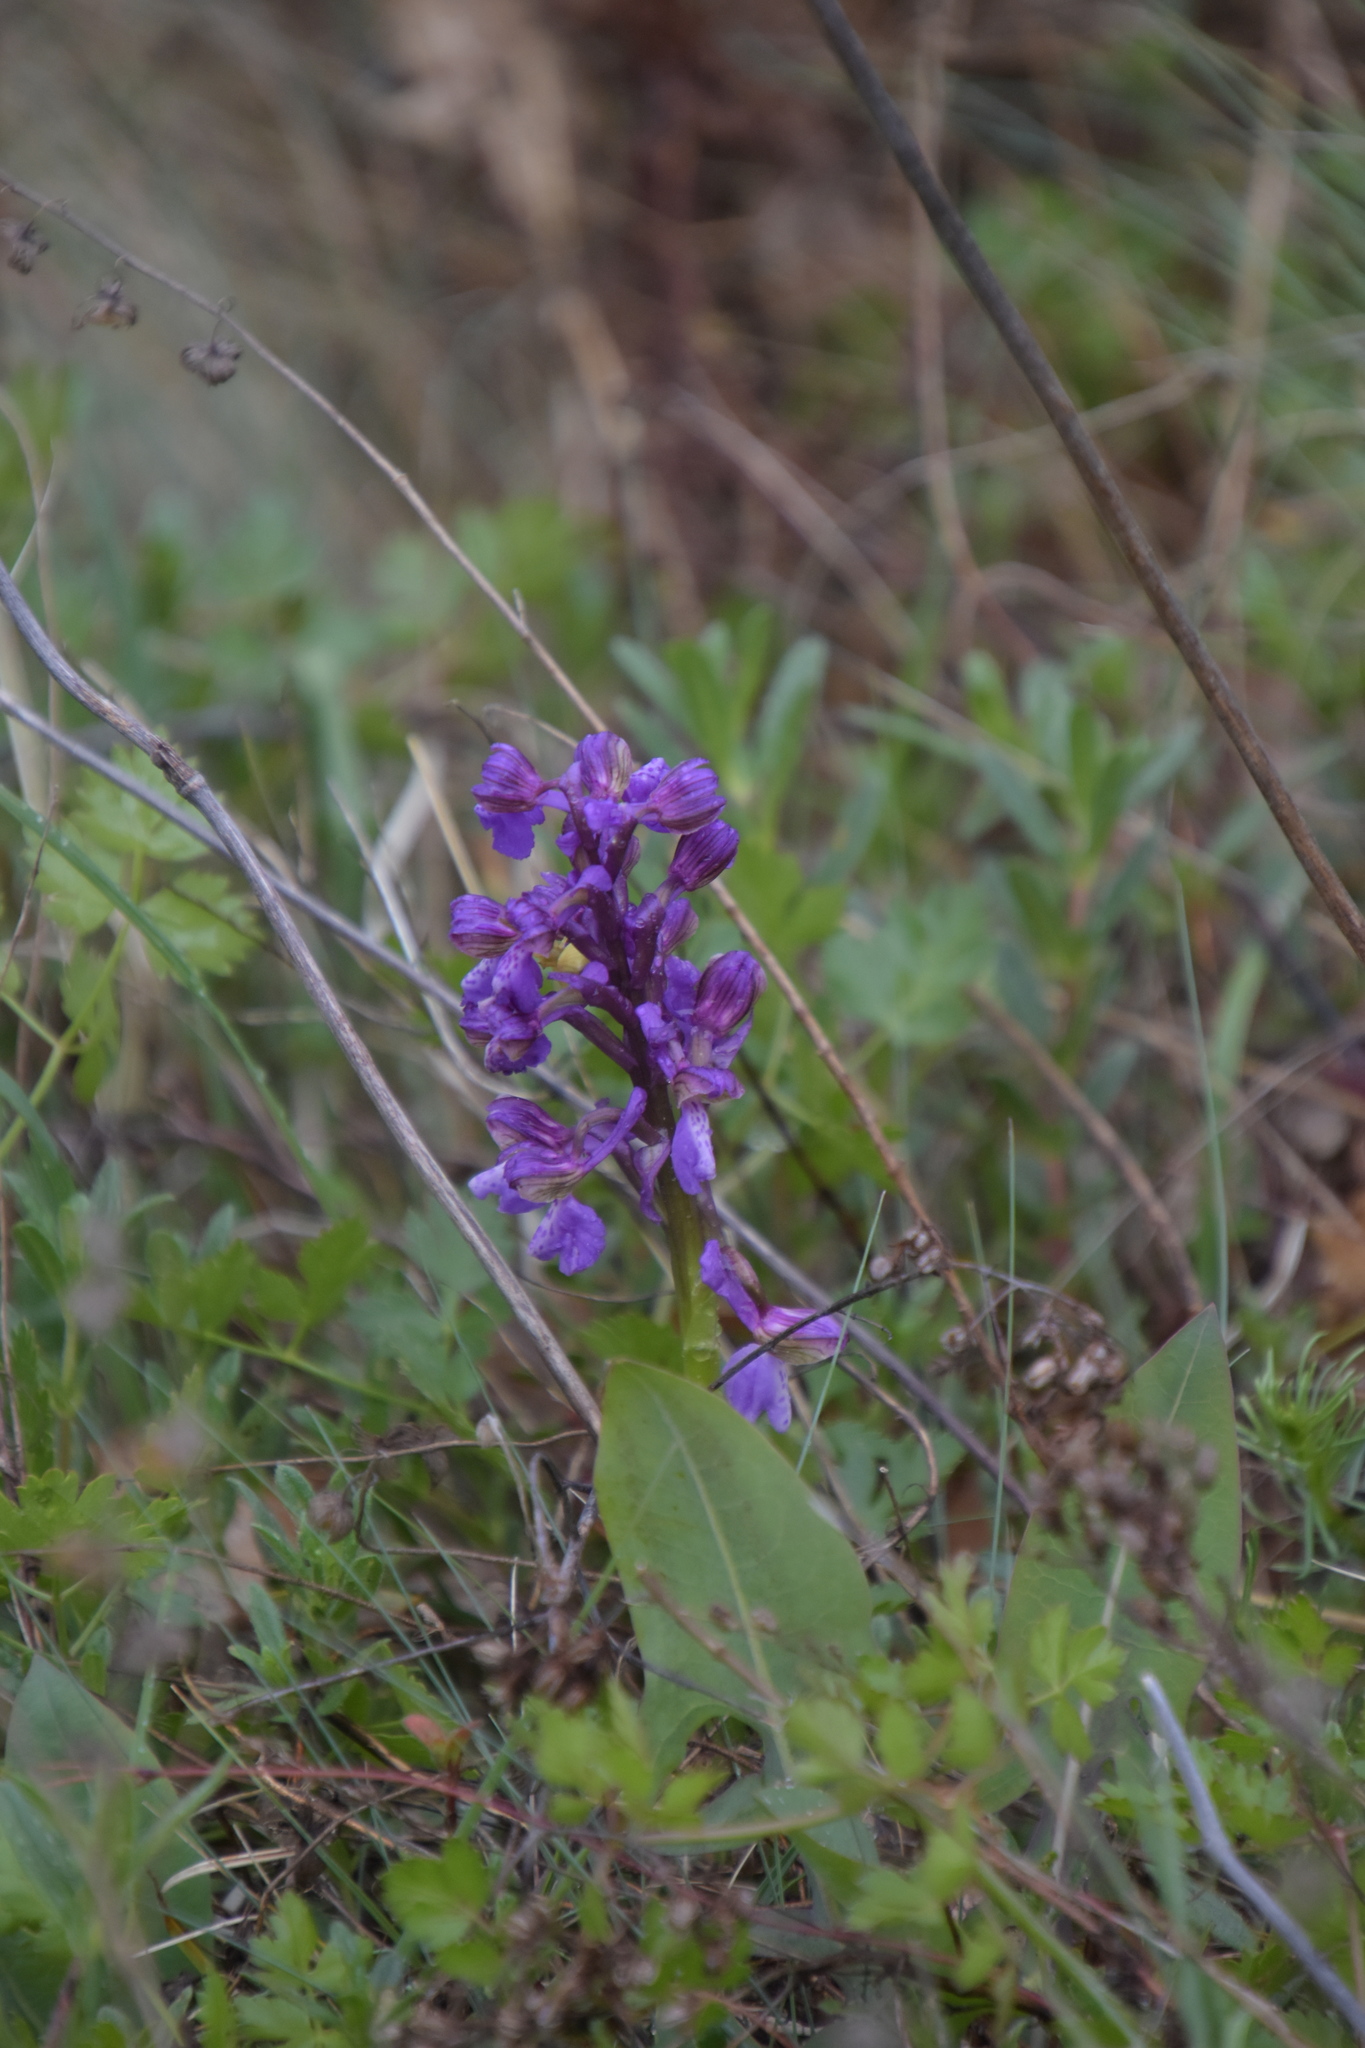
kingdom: Plantae
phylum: Tracheophyta
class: Liliopsida
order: Asparagales
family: Orchidaceae
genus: Anacamptis
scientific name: Anacamptis morio
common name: Green-winged orchid
